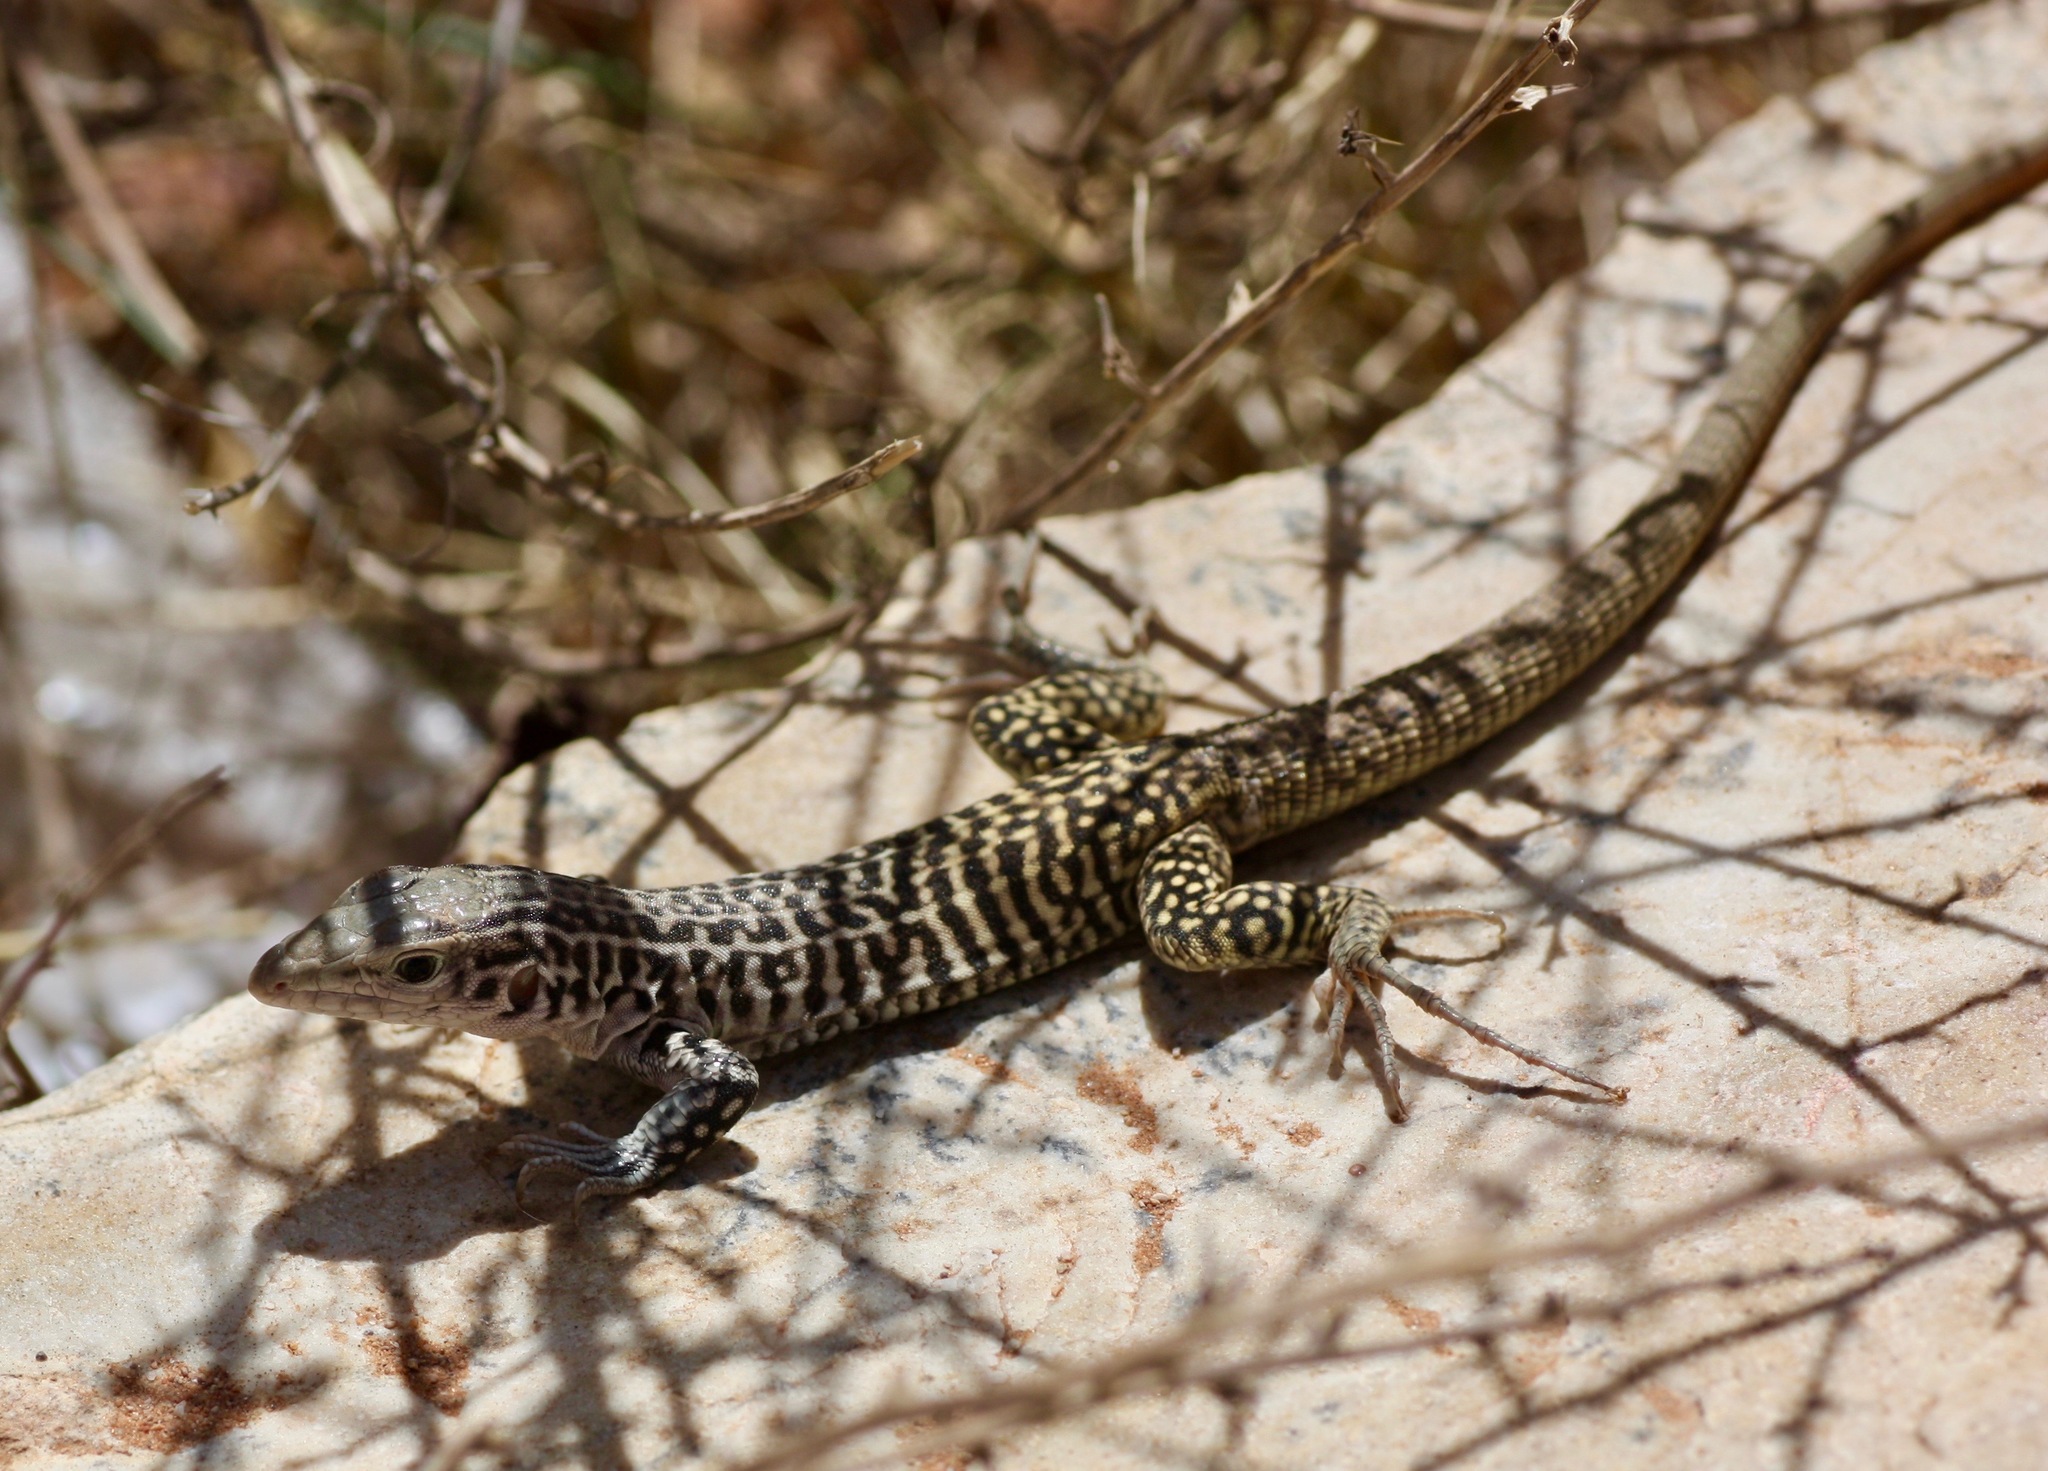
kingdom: Animalia
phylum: Chordata
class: Squamata
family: Teiidae
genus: Aspidoscelis
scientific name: Aspidoscelis tesselatus
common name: Common checkered whiptail [tesselata]
